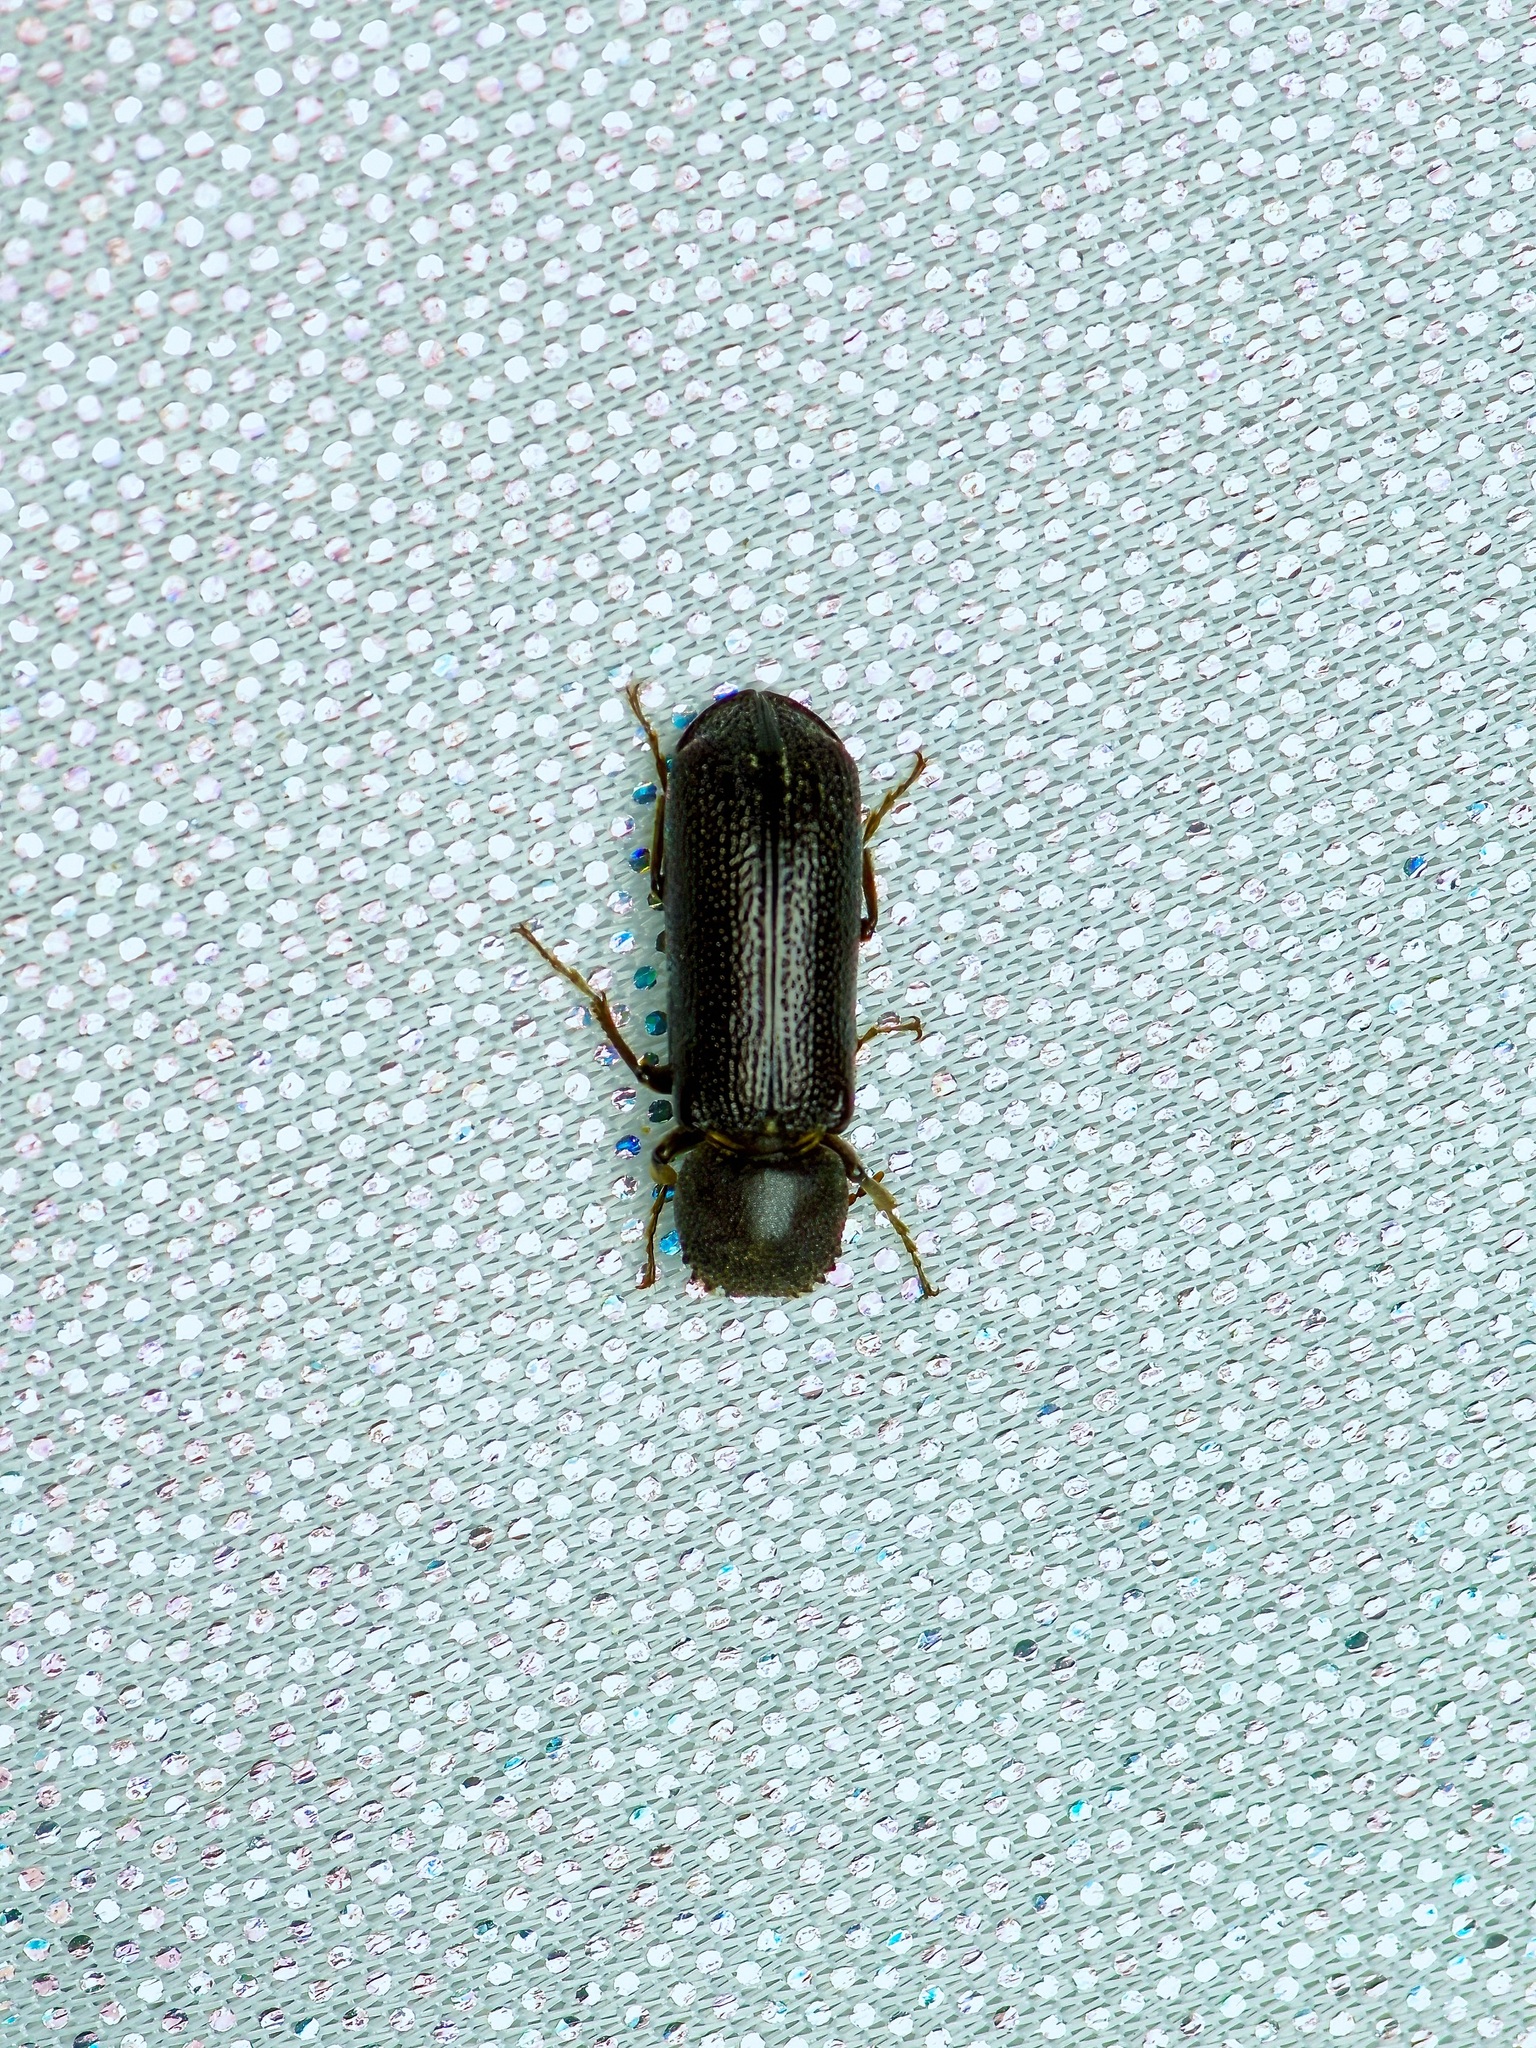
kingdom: Animalia
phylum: Arthropoda
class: Insecta
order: Coleoptera
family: Bostrichidae
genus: Amphicerus
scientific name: Amphicerus cornutus
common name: Powderpost beetle
